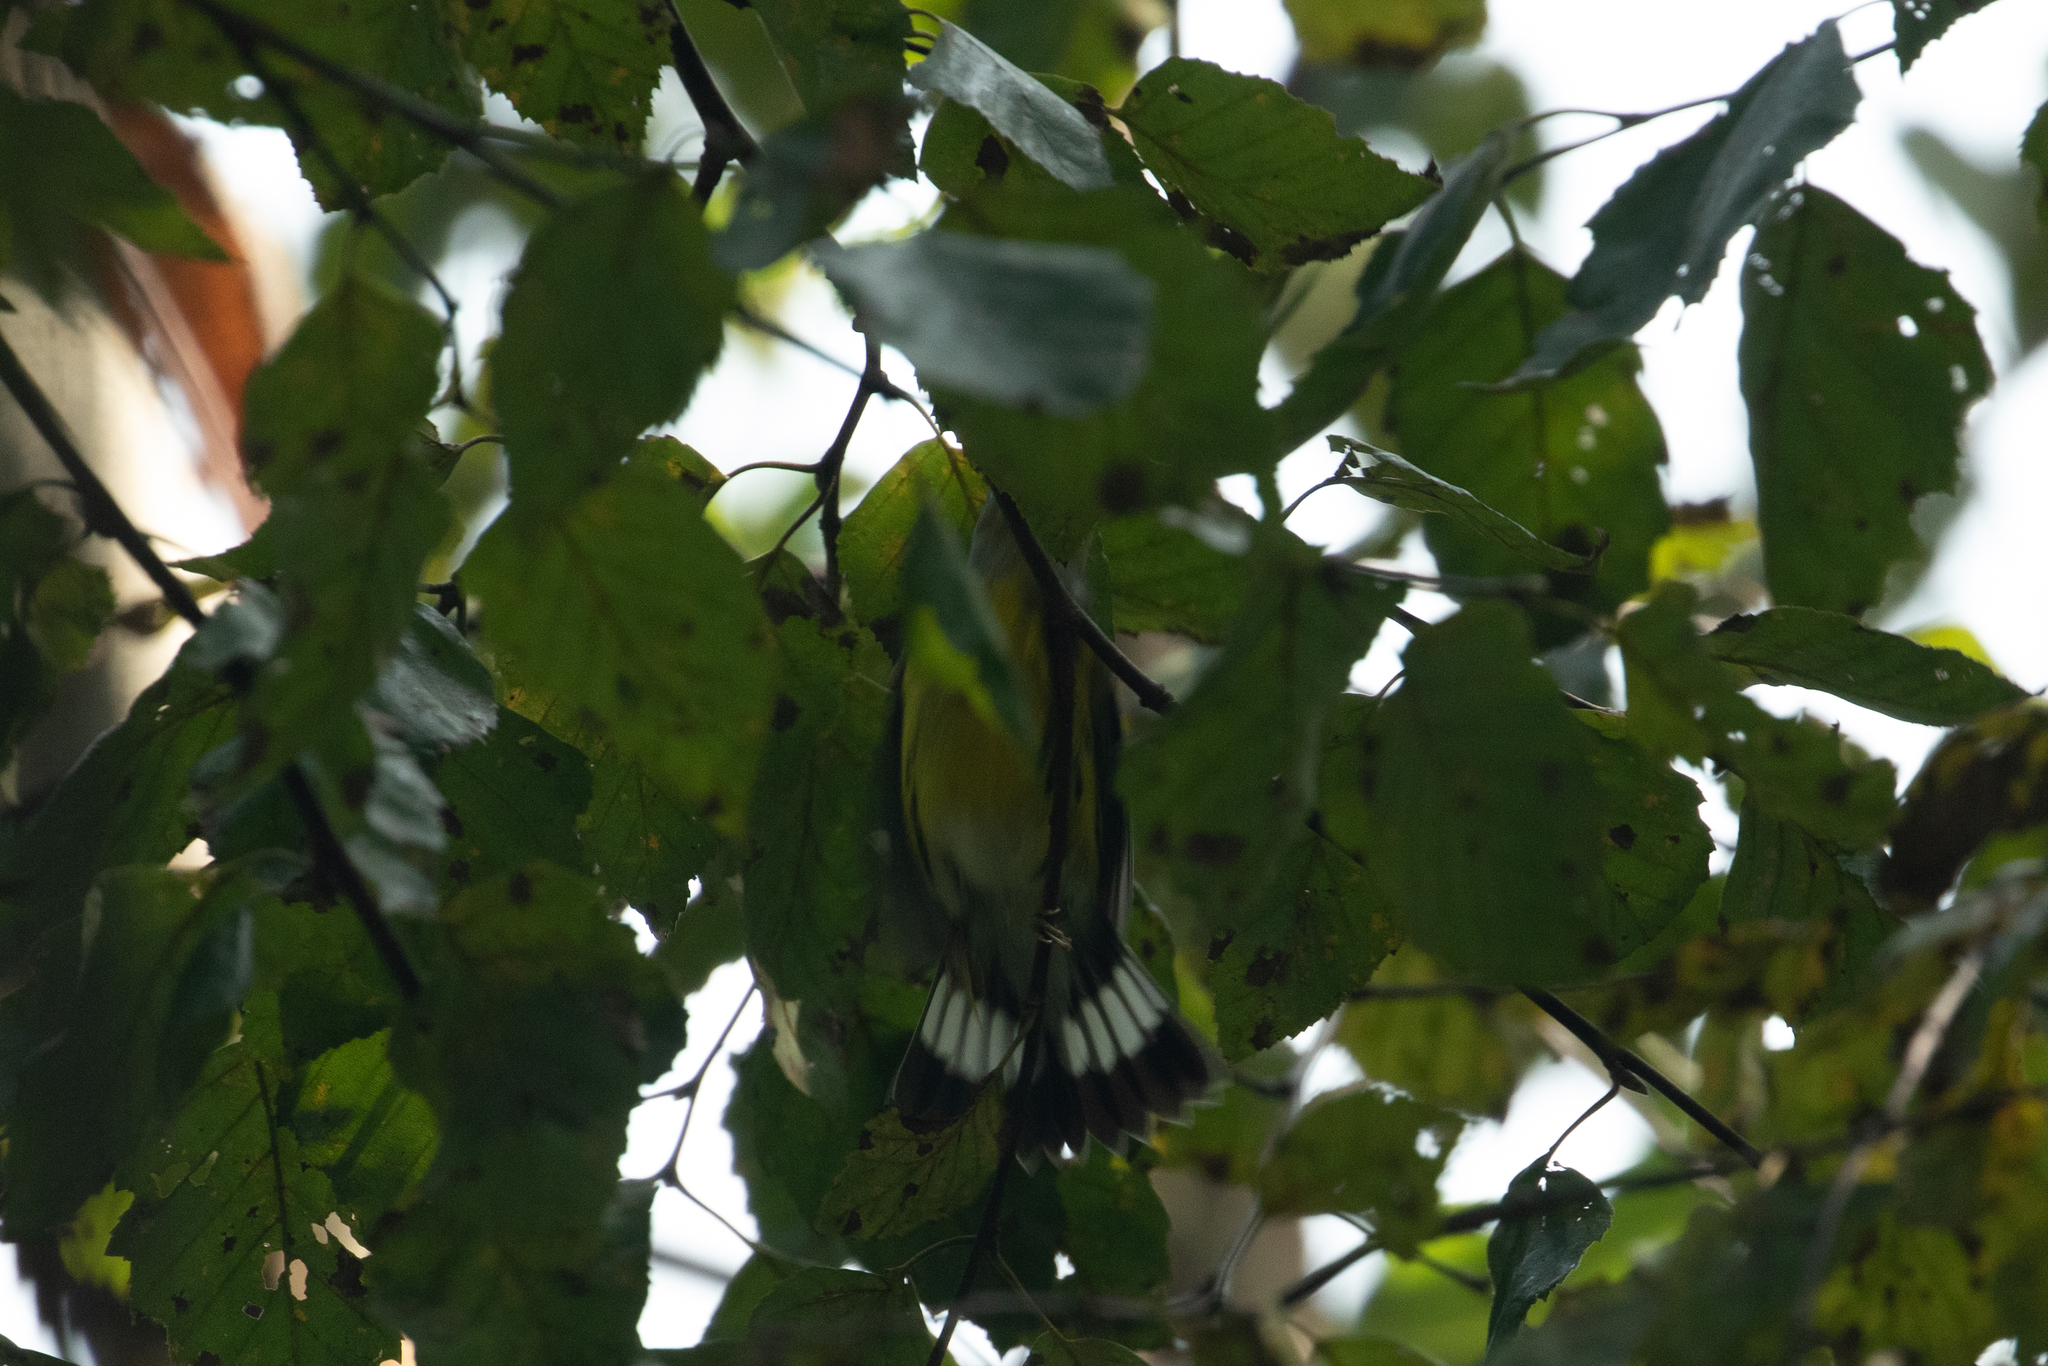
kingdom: Animalia
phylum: Chordata
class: Aves
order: Passeriformes
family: Parulidae
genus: Setophaga
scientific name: Setophaga magnolia
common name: Magnolia warbler
